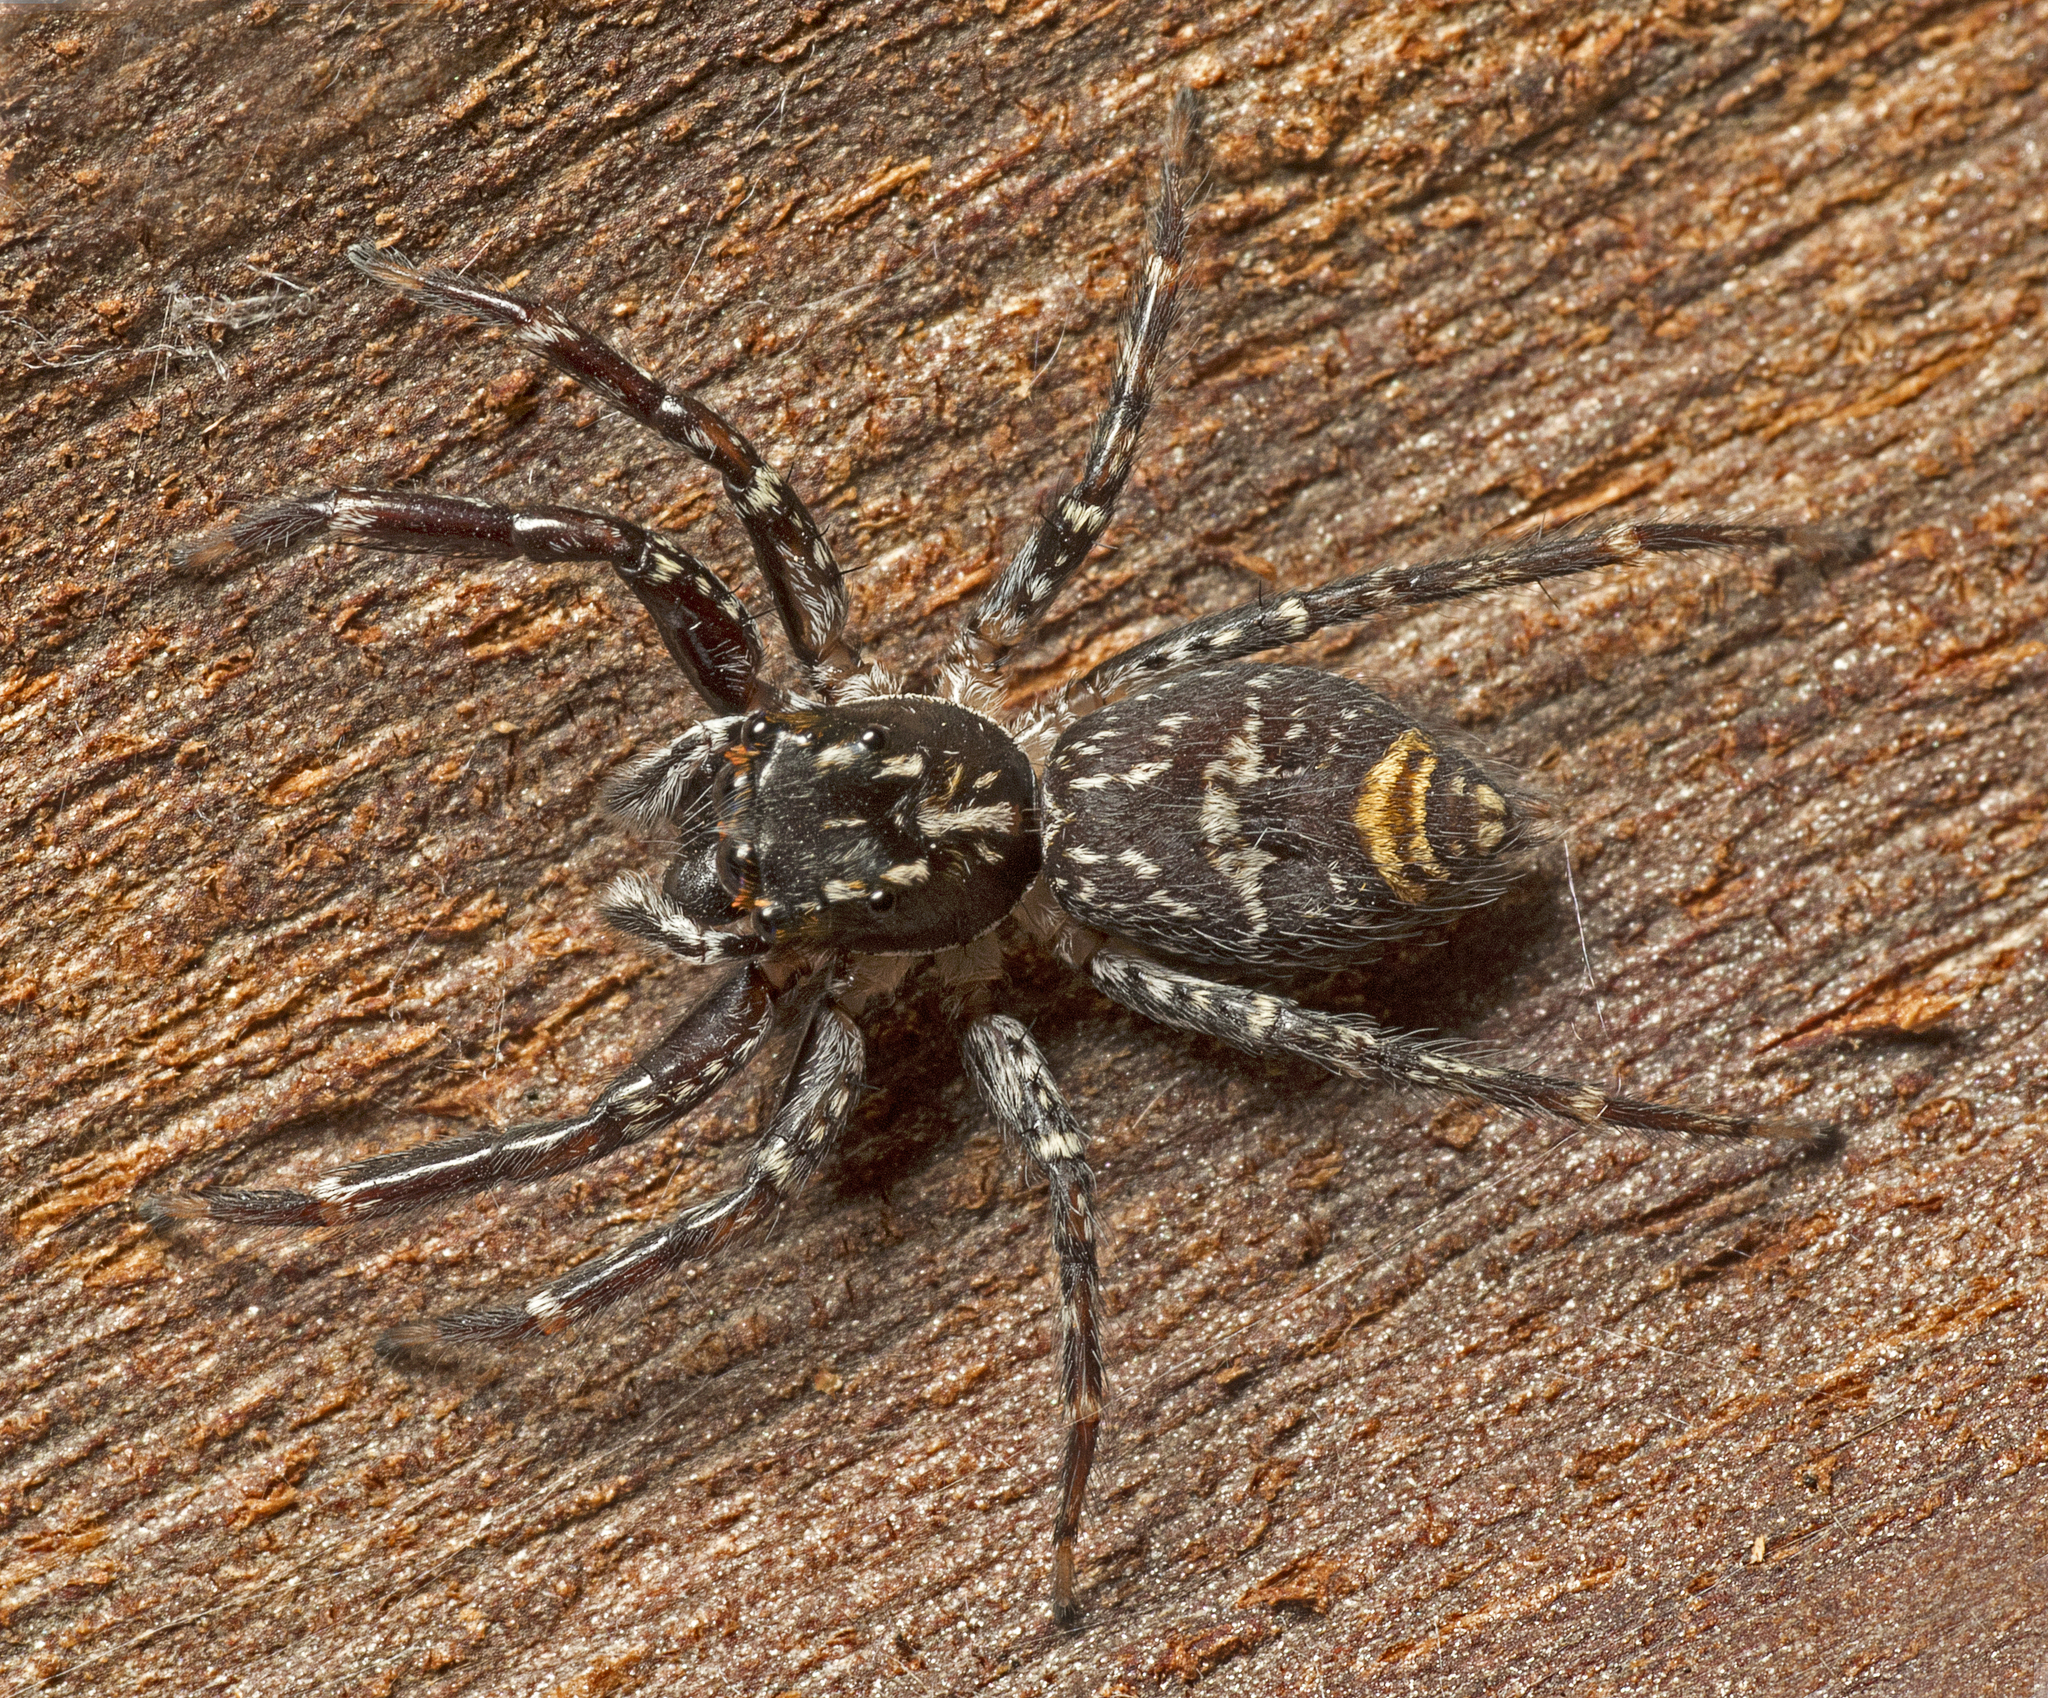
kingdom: Animalia
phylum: Arthropoda
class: Arachnida
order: Araneae
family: Salticidae
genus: Astia
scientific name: Astia
